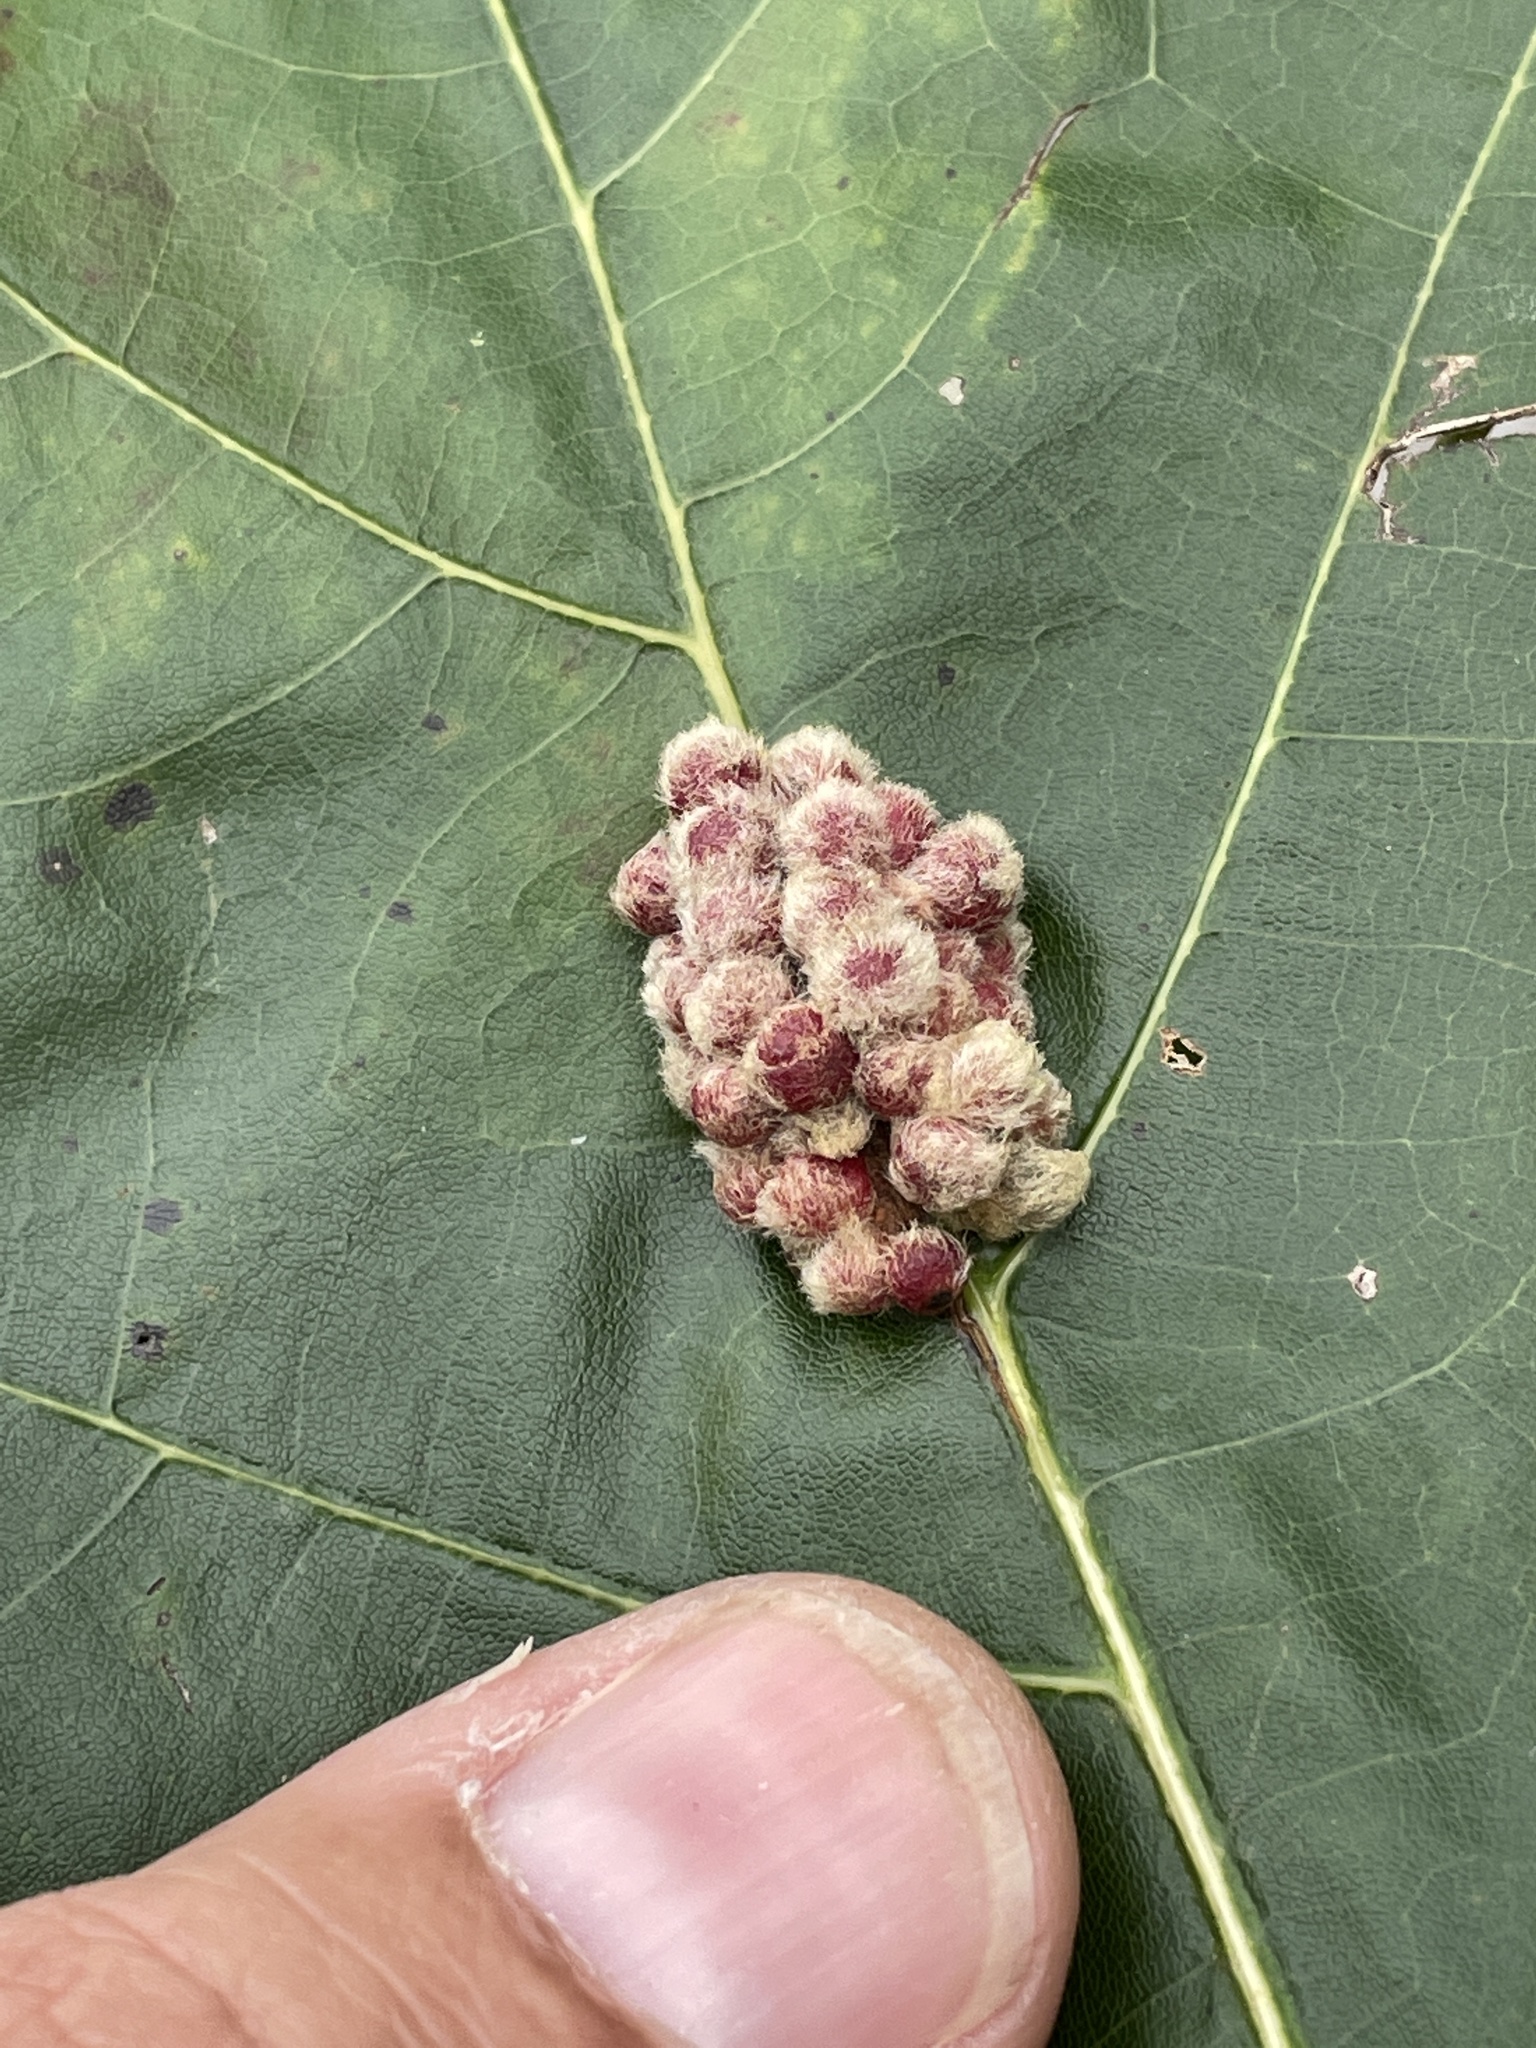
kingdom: Animalia
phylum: Arthropoda
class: Insecta
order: Hymenoptera
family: Cynipidae
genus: Callirhytis
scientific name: Callirhytis
